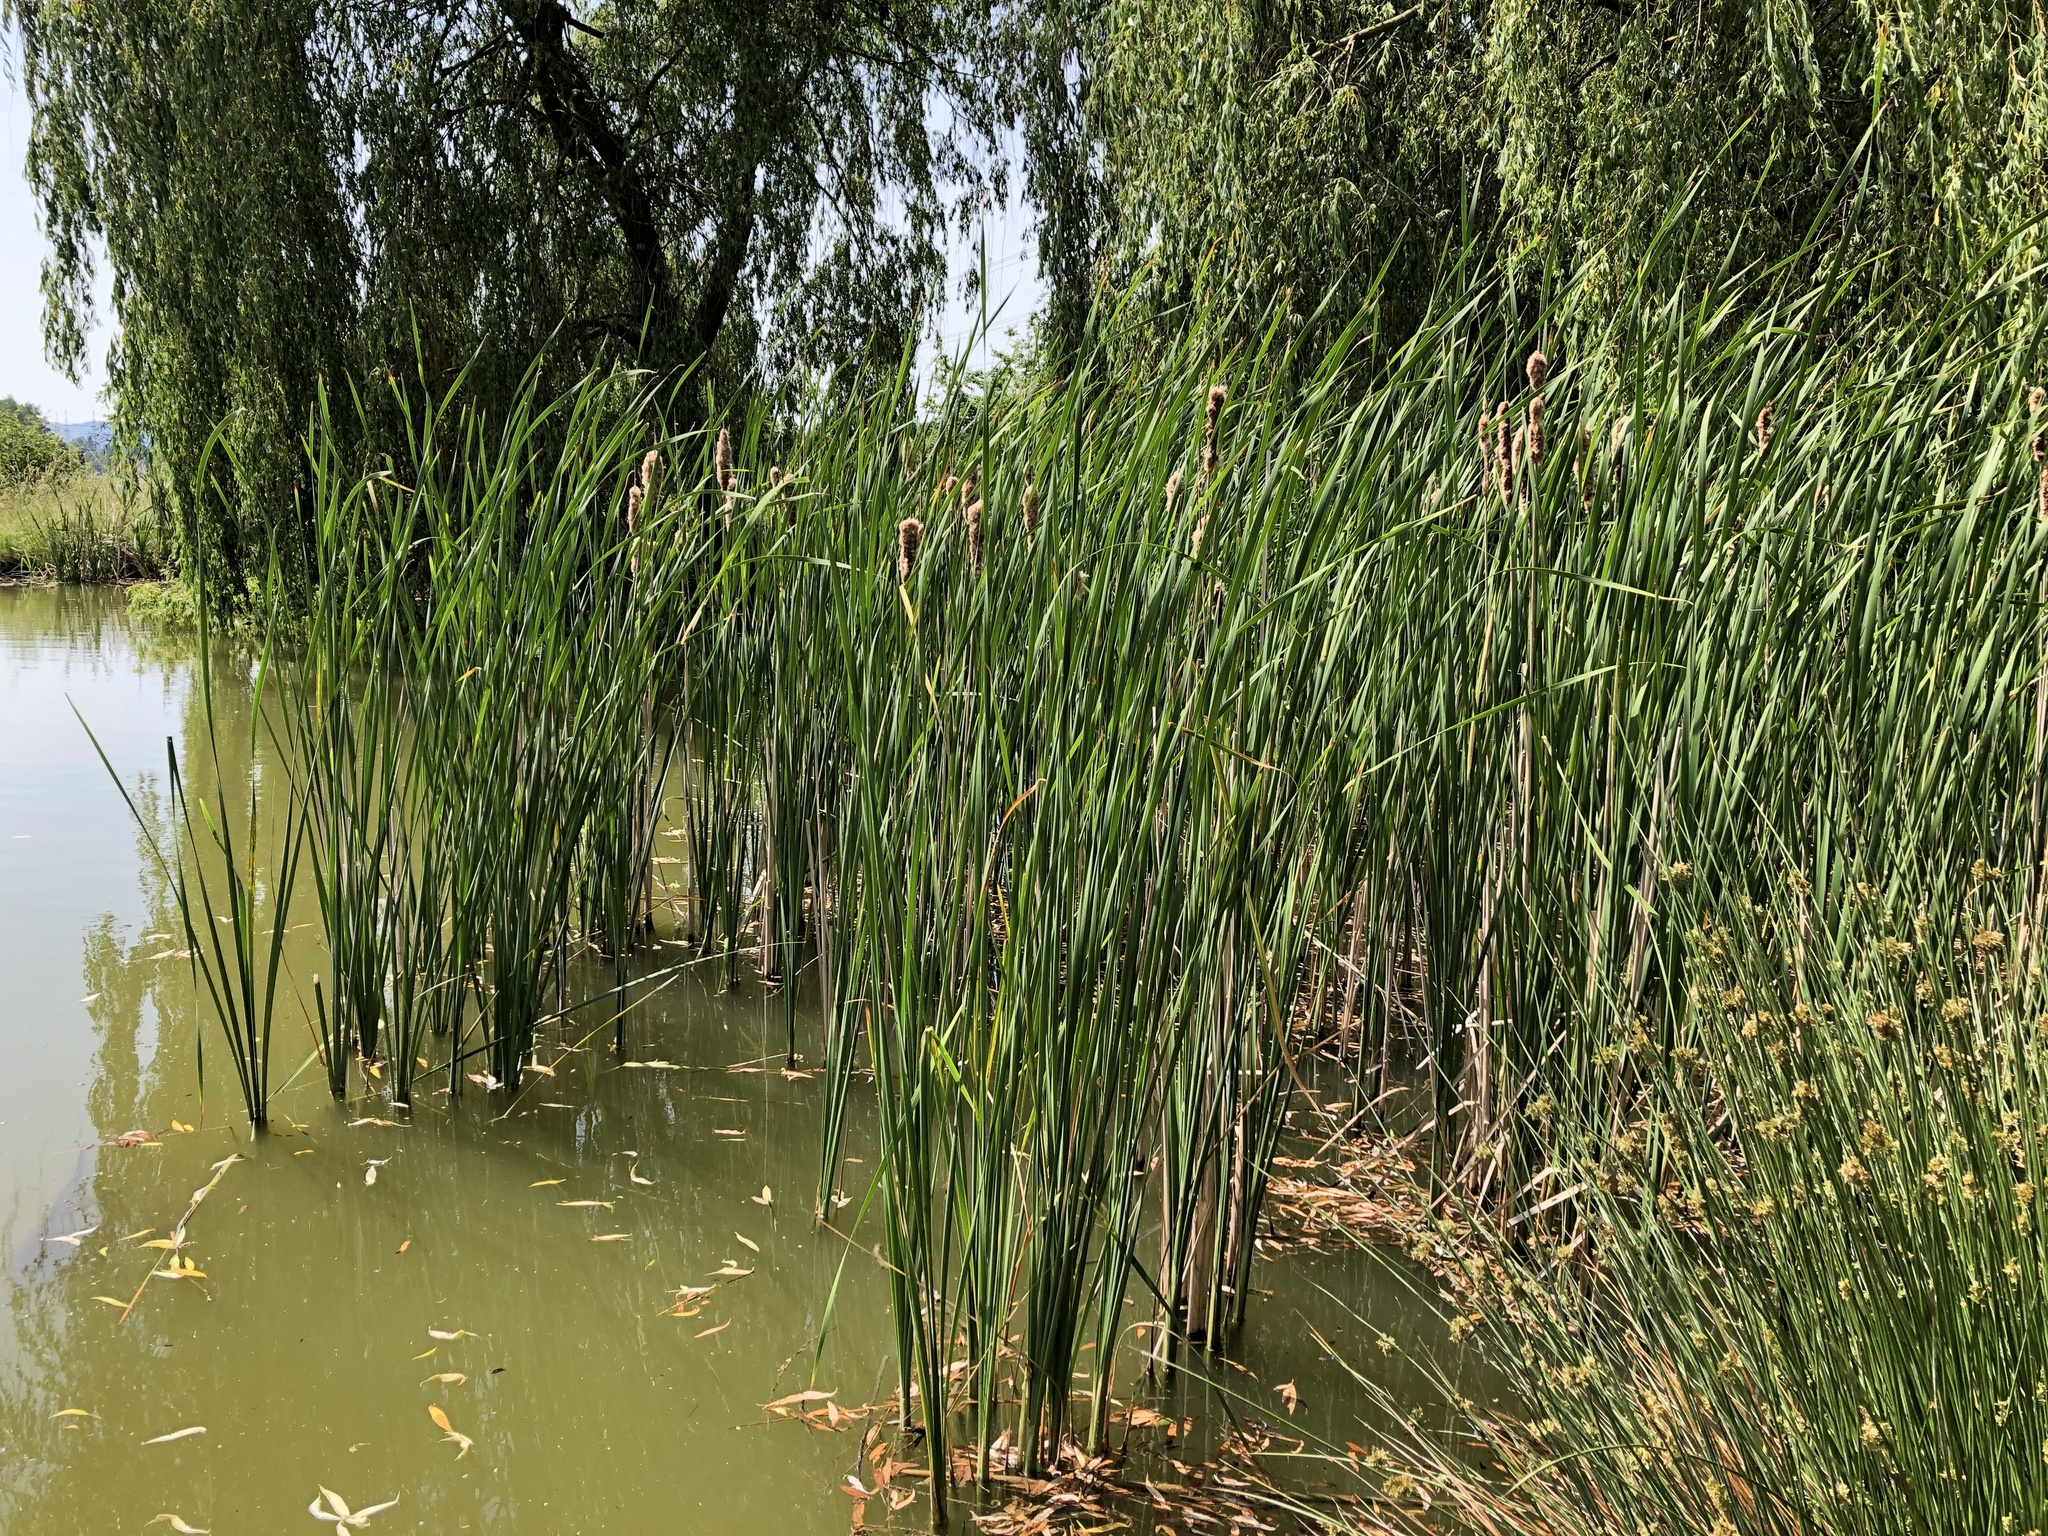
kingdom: Plantae
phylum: Tracheophyta
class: Liliopsida
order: Poales
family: Typhaceae
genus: Typha
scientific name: Typha angustifolia
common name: Lesser bulrush
